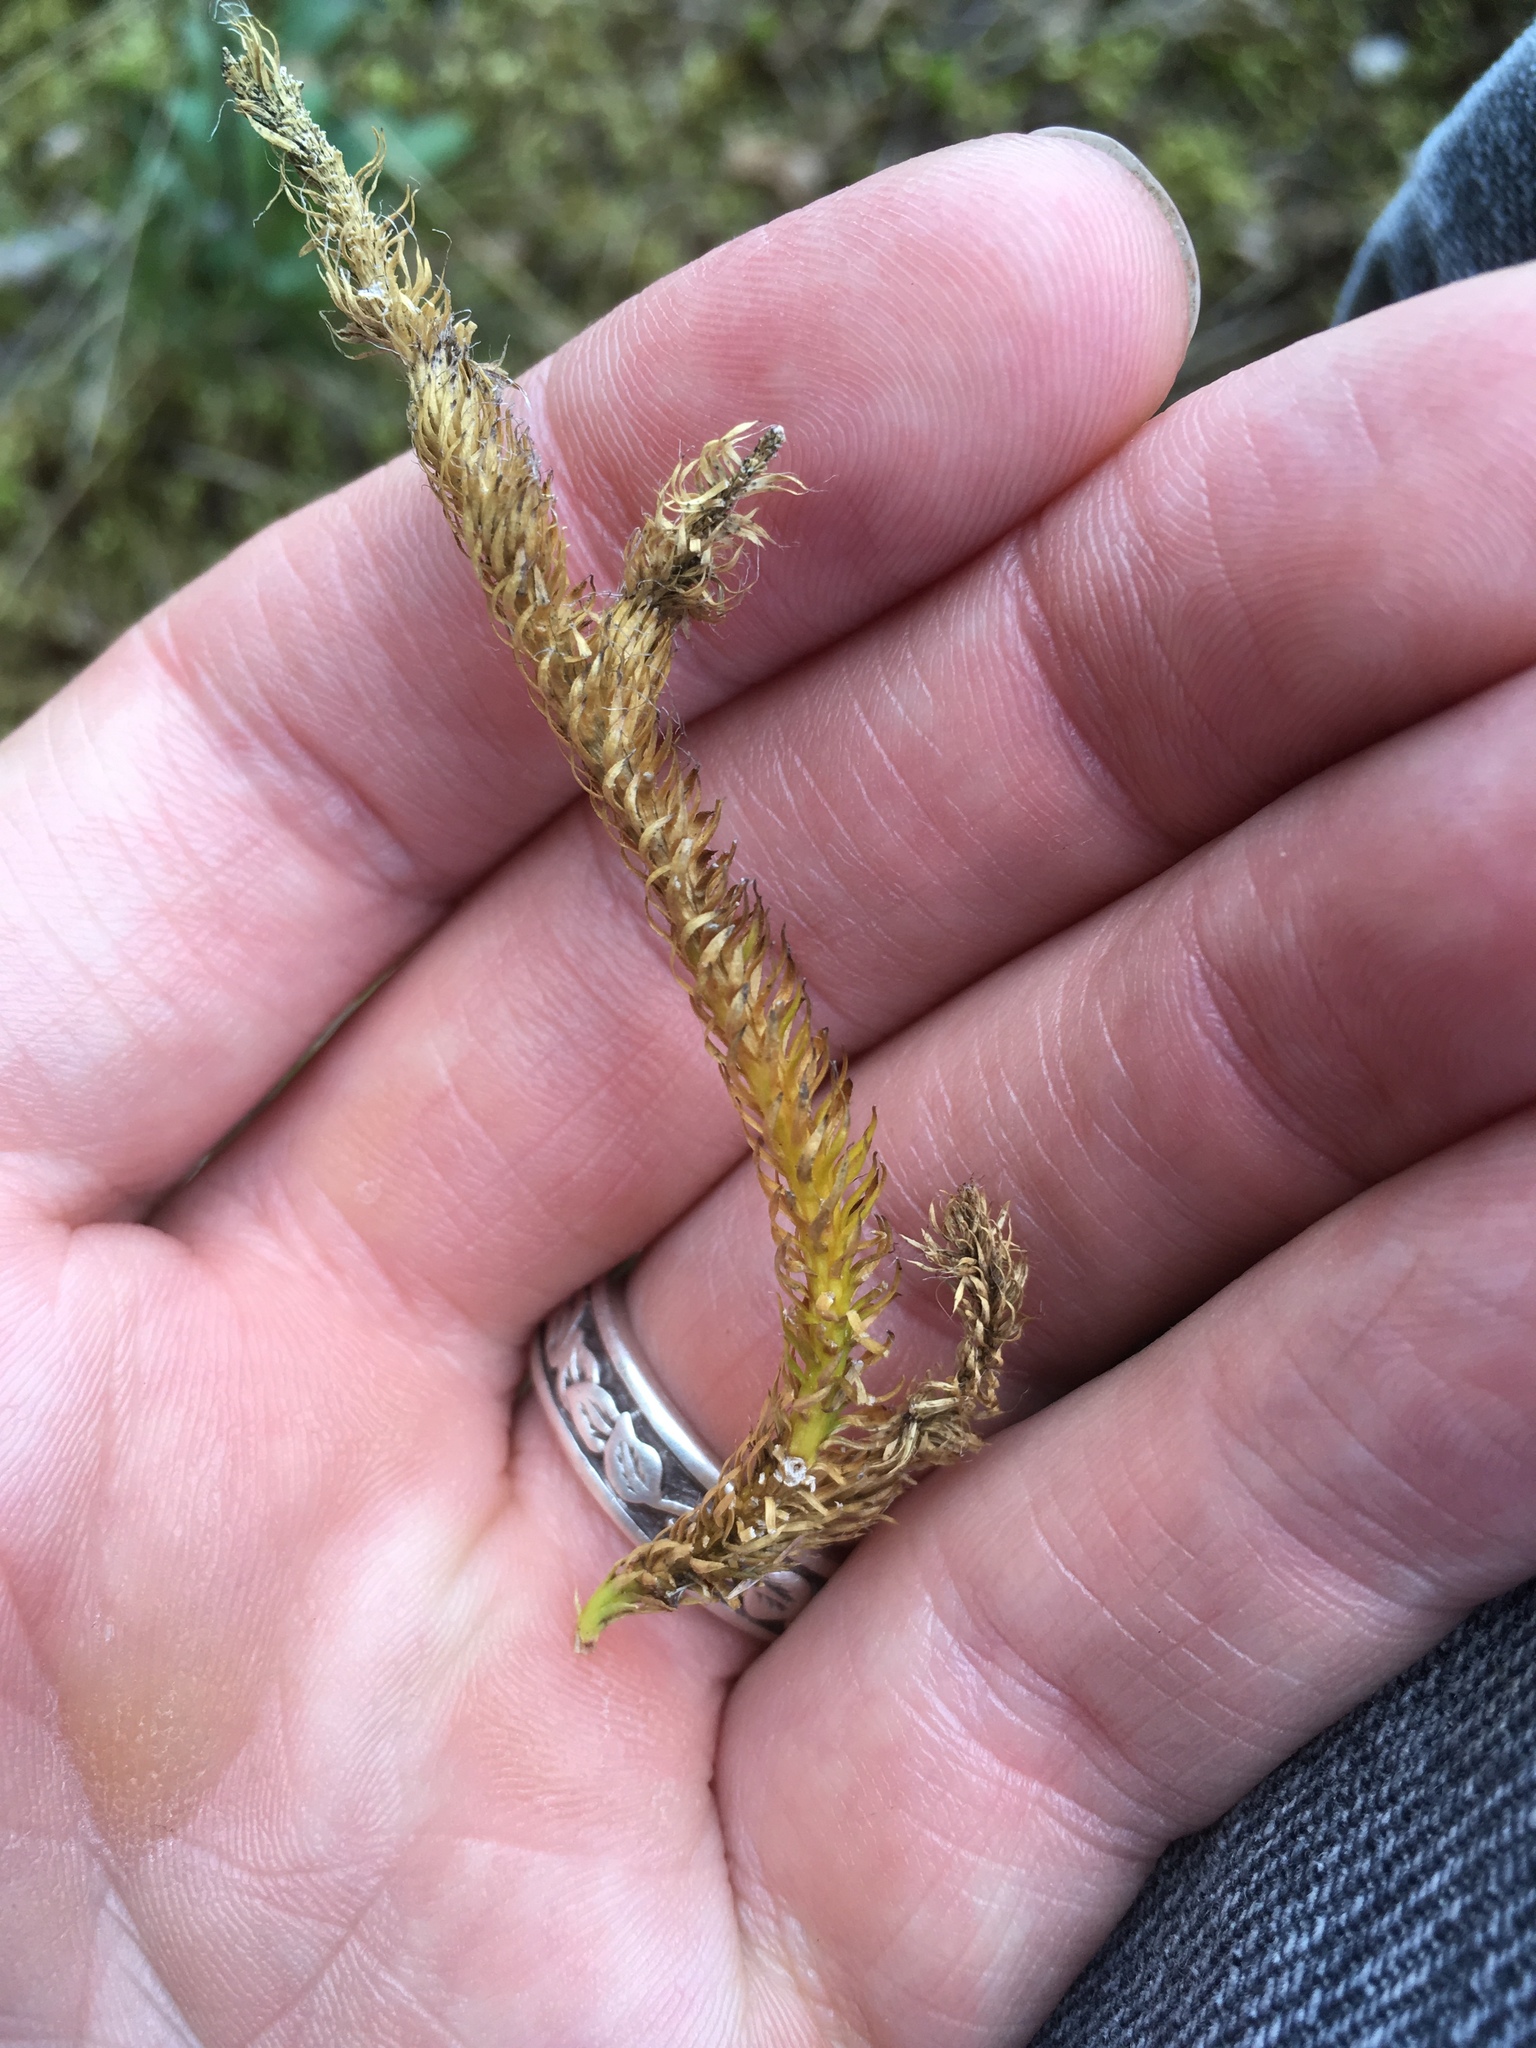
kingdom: Plantae
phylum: Tracheophyta
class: Lycopodiopsida
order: Lycopodiales
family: Lycopodiaceae
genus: Lycopodium
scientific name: Lycopodium clavatum
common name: Stag's-horn clubmoss
